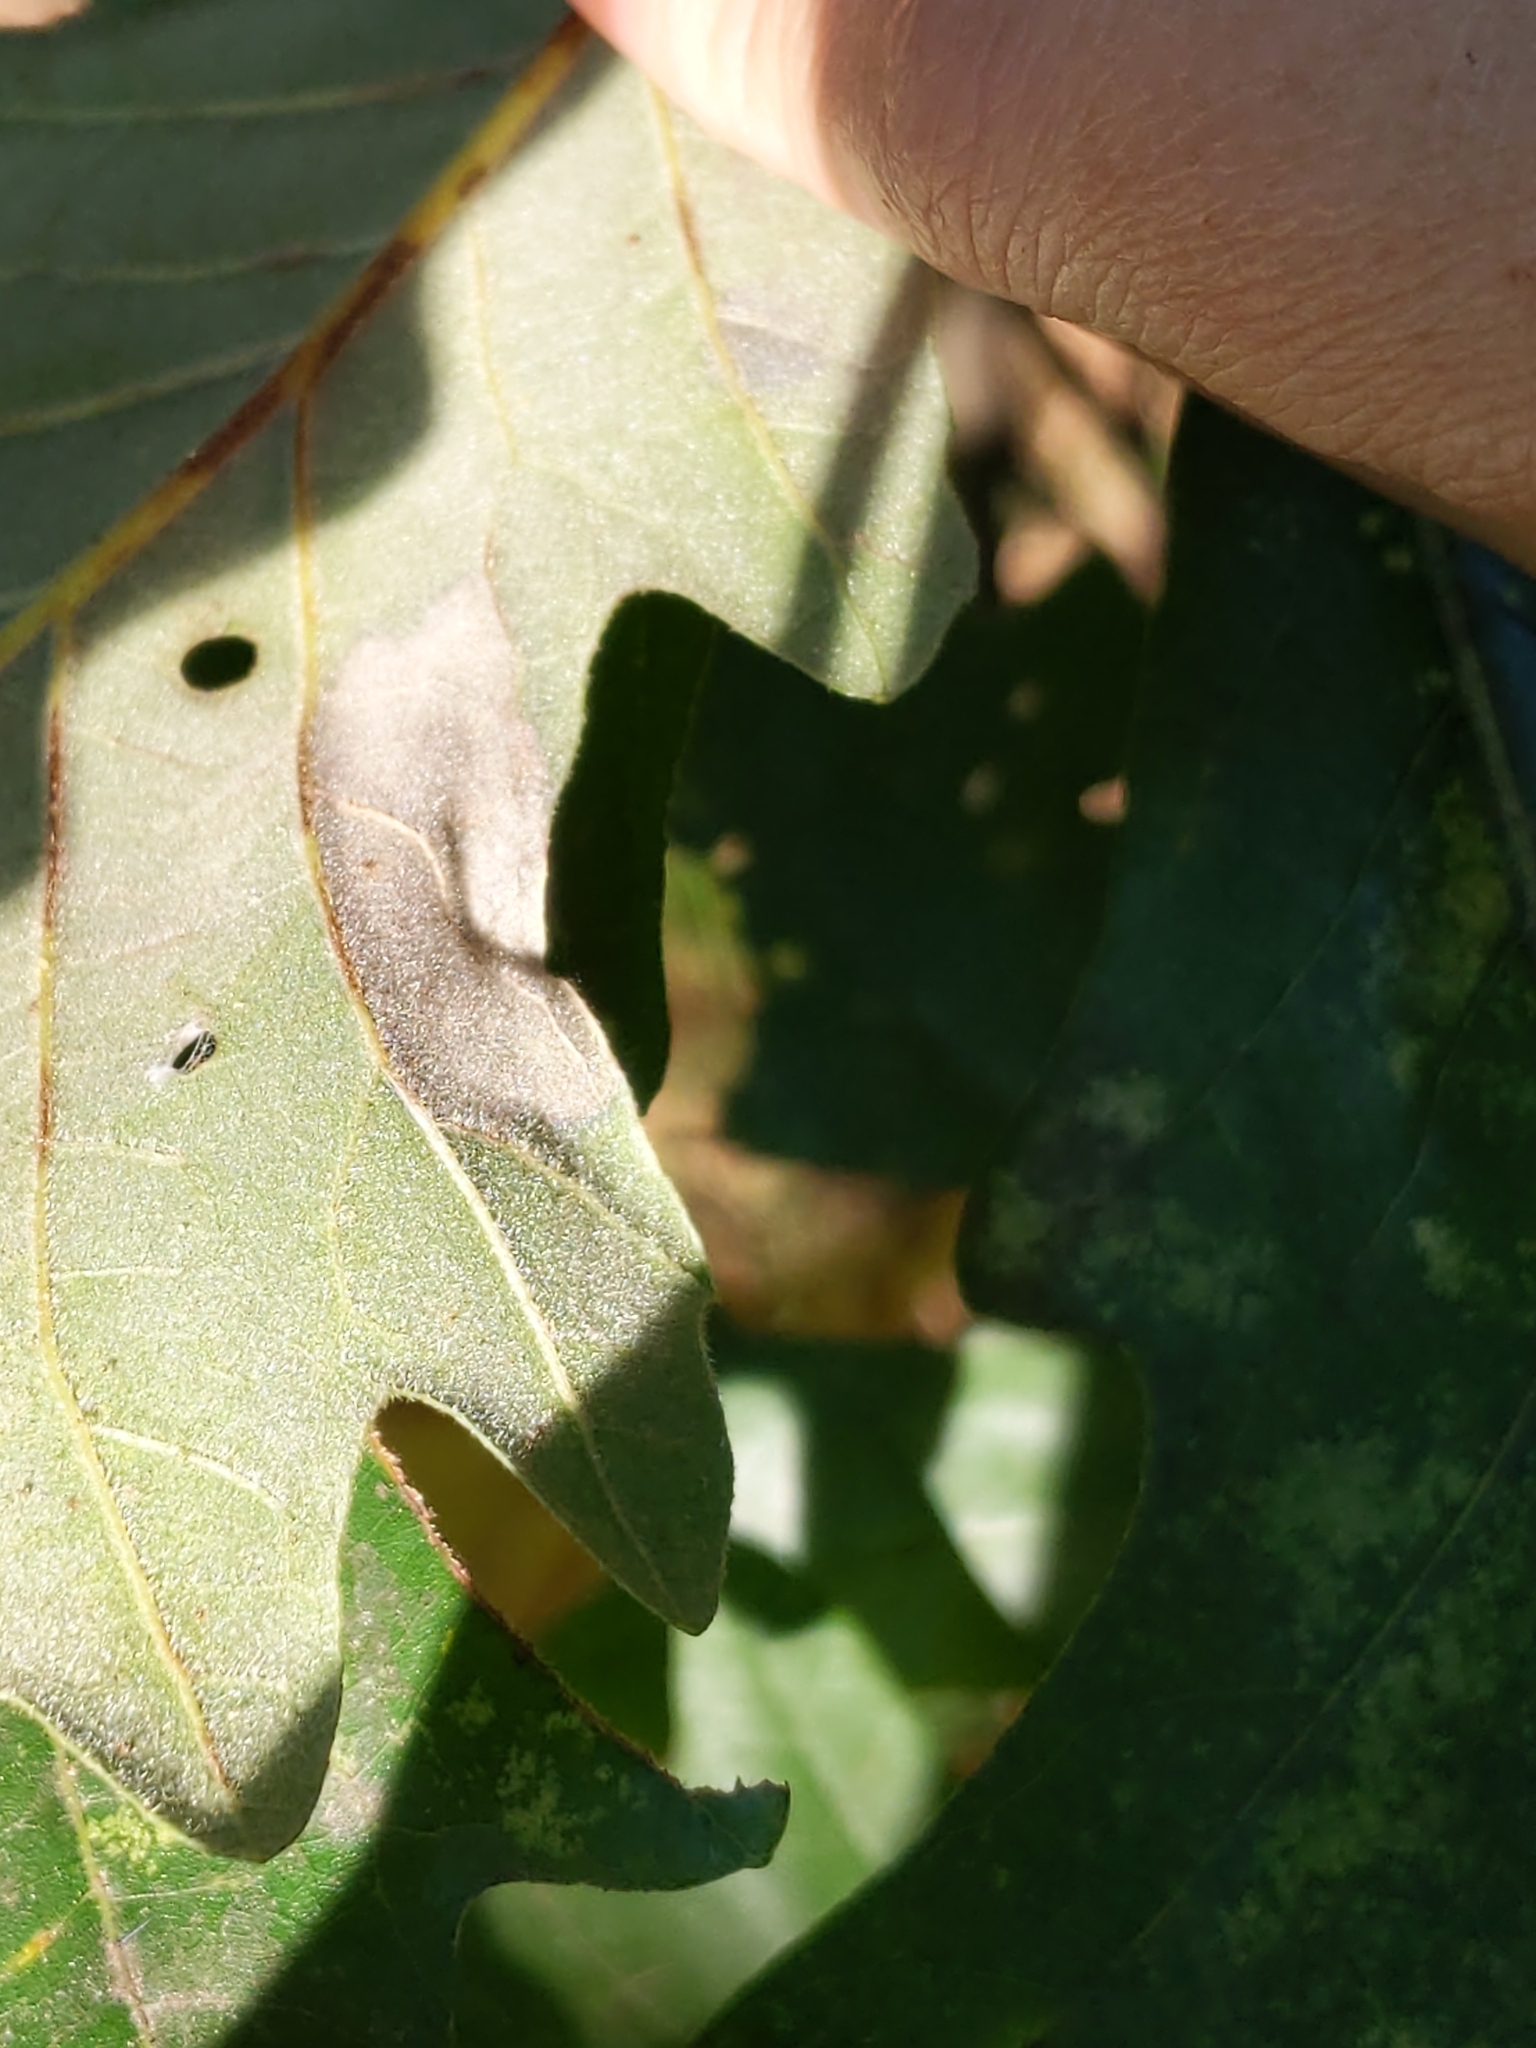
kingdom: Animalia
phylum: Arthropoda
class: Insecta
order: Lepidoptera
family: Gracillariidae
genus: Cameraria
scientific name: Cameraria
